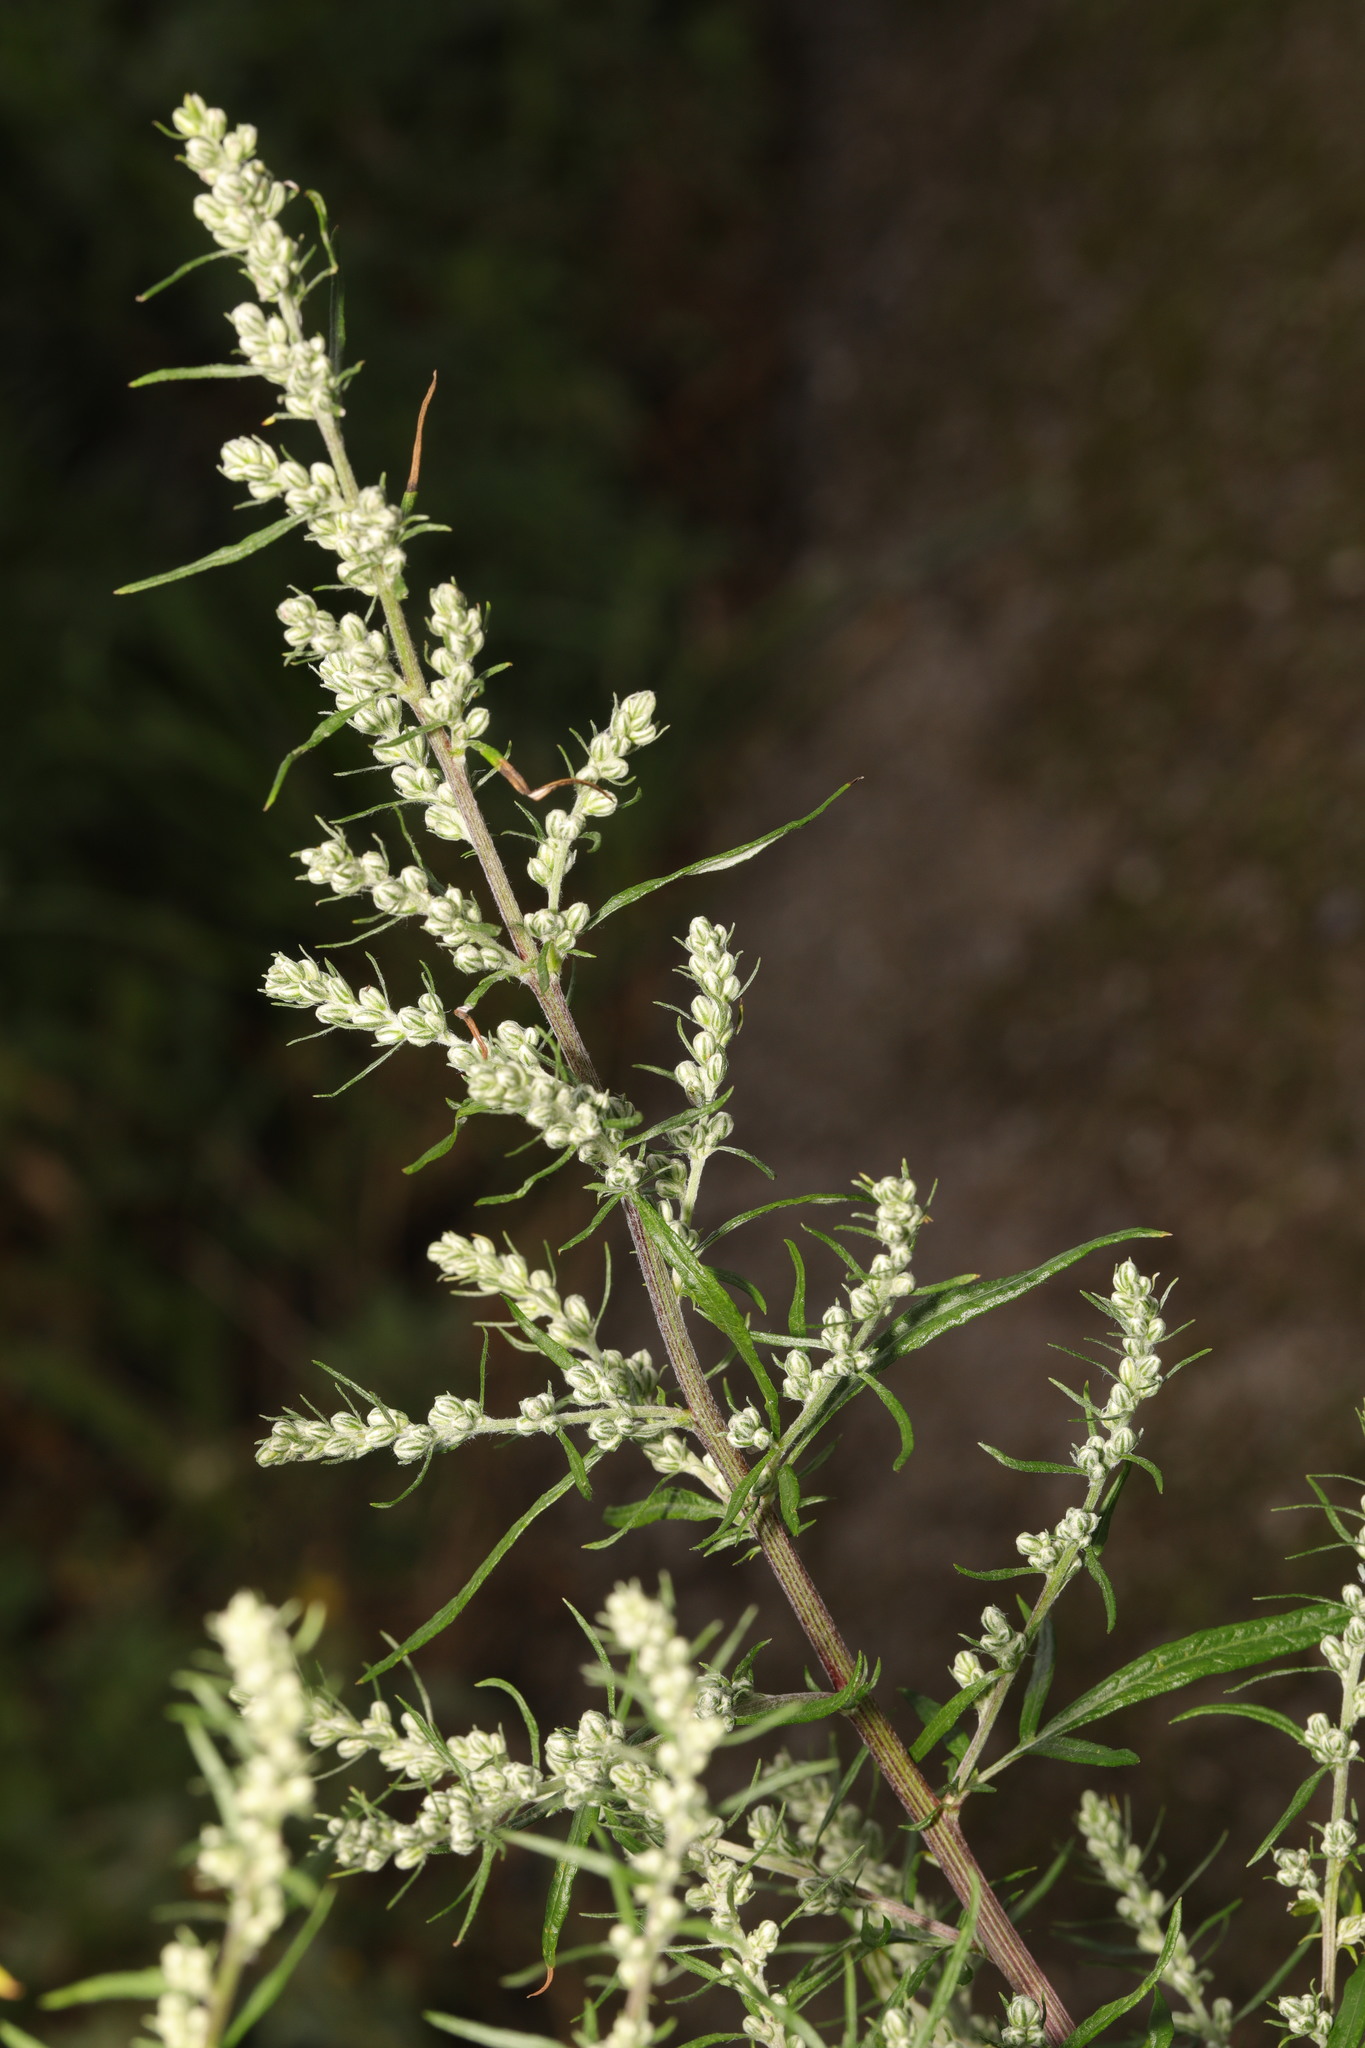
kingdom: Plantae
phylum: Tracheophyta
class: Magnoliopsida
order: Asterales
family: Asteraceae
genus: Artemisia
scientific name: Artemisia vulgaris
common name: Mugwort
